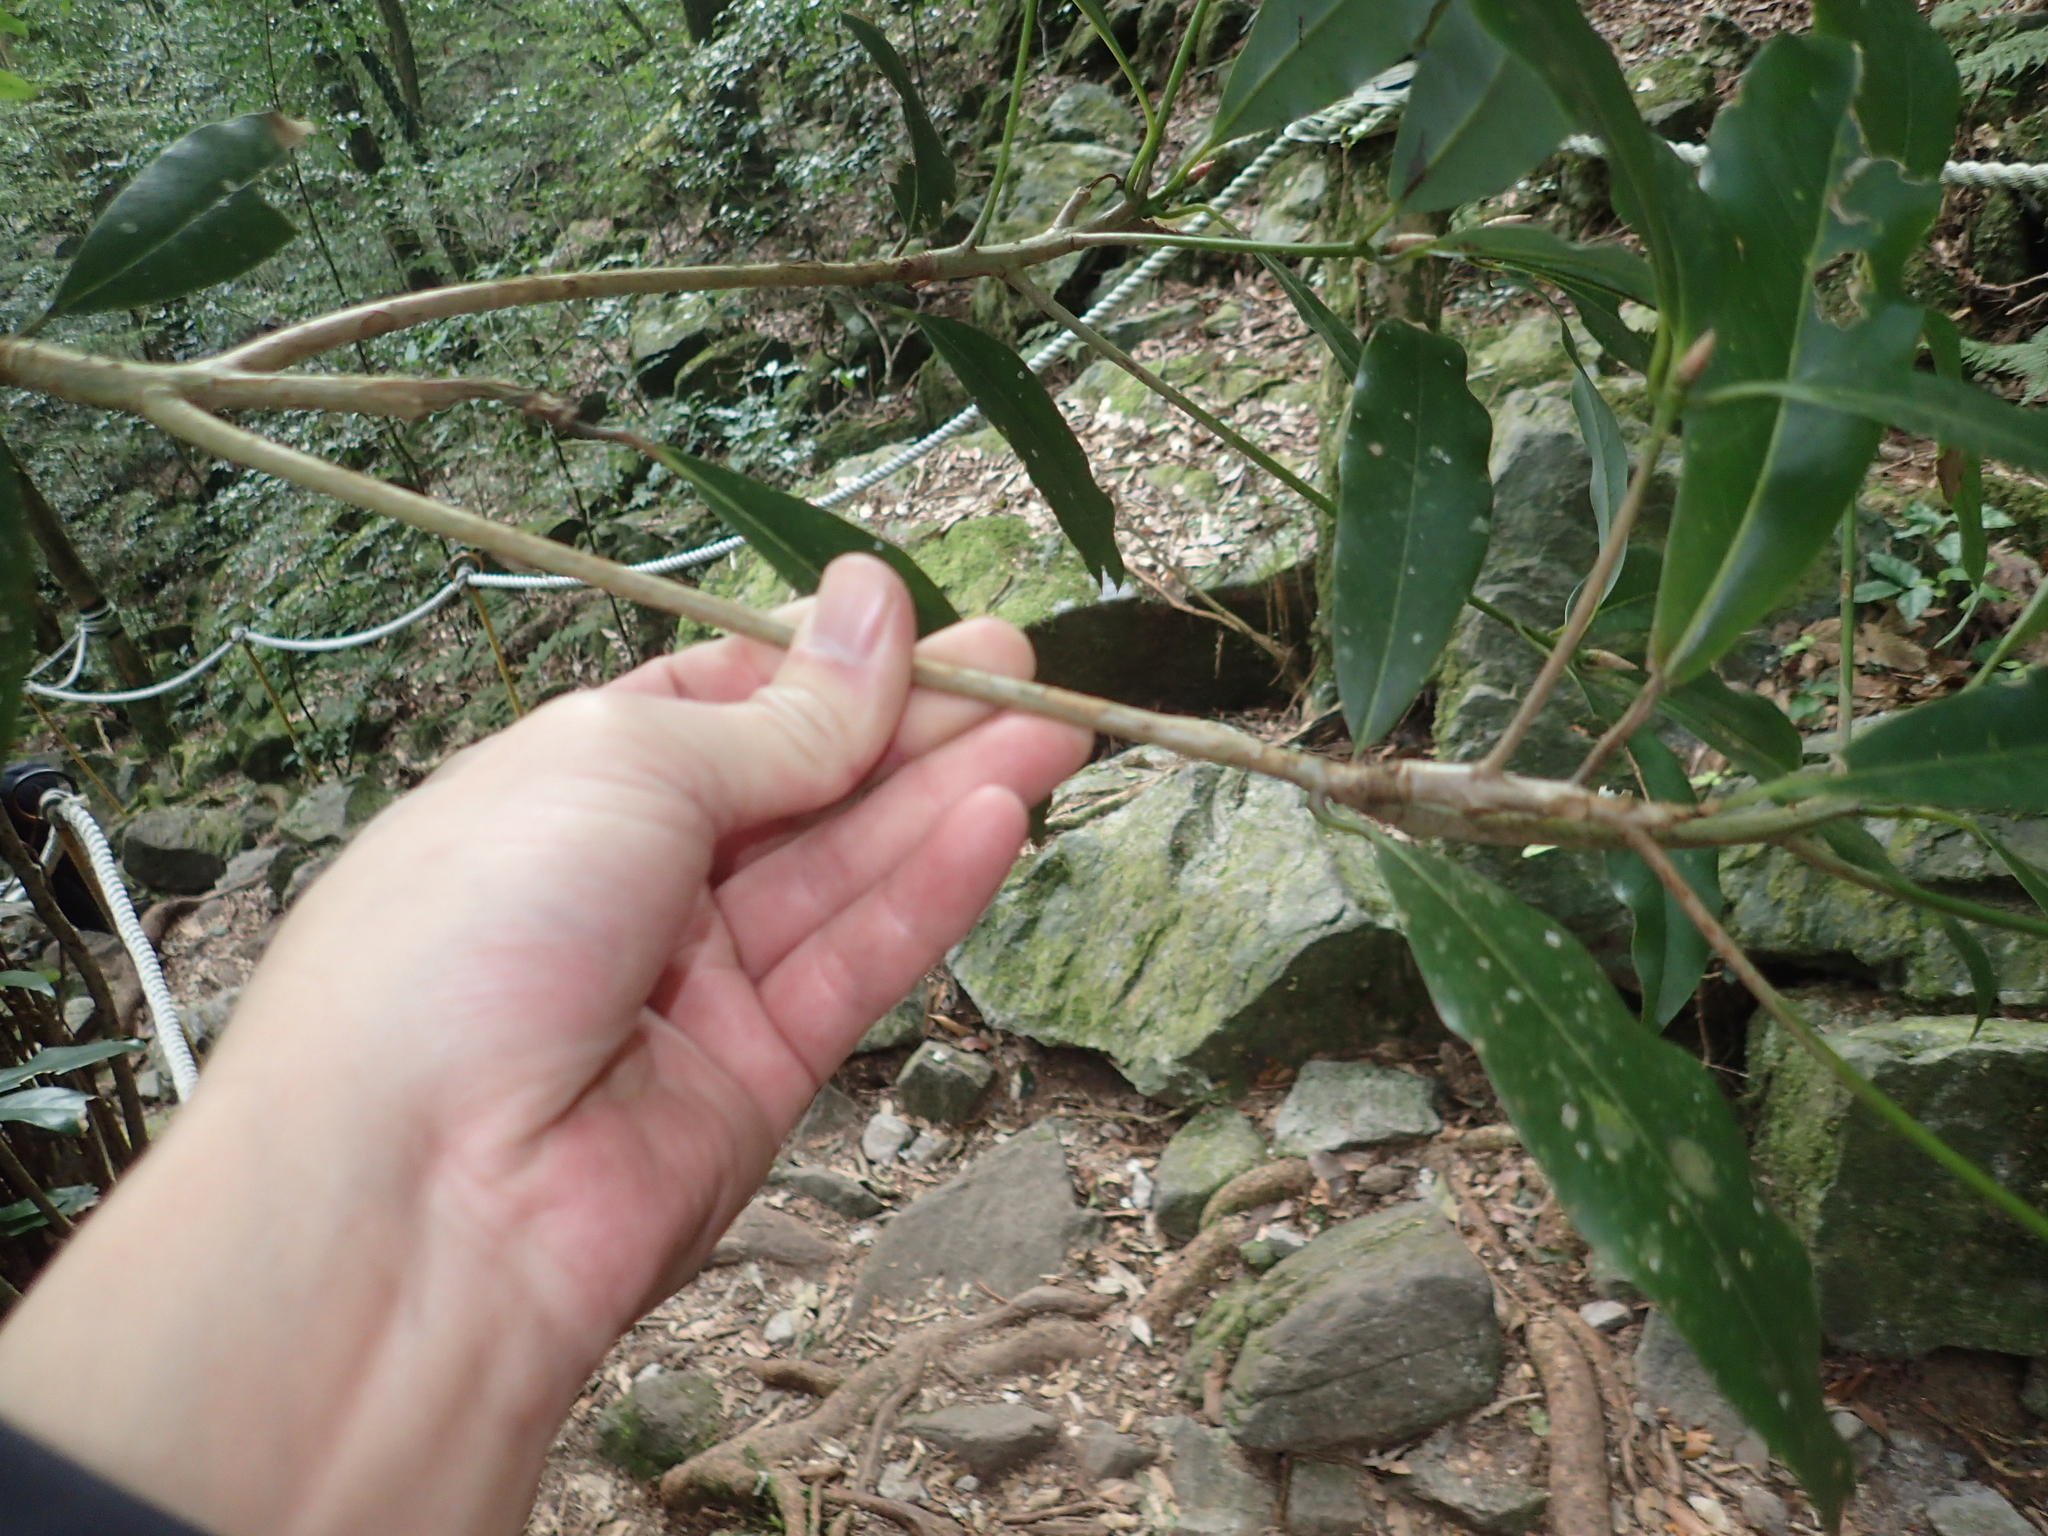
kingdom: Plantae
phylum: Tracheophyta
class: Magnoliopsida
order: Laurales
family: Lauraceae
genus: Machilus
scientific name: Machilus japonica
